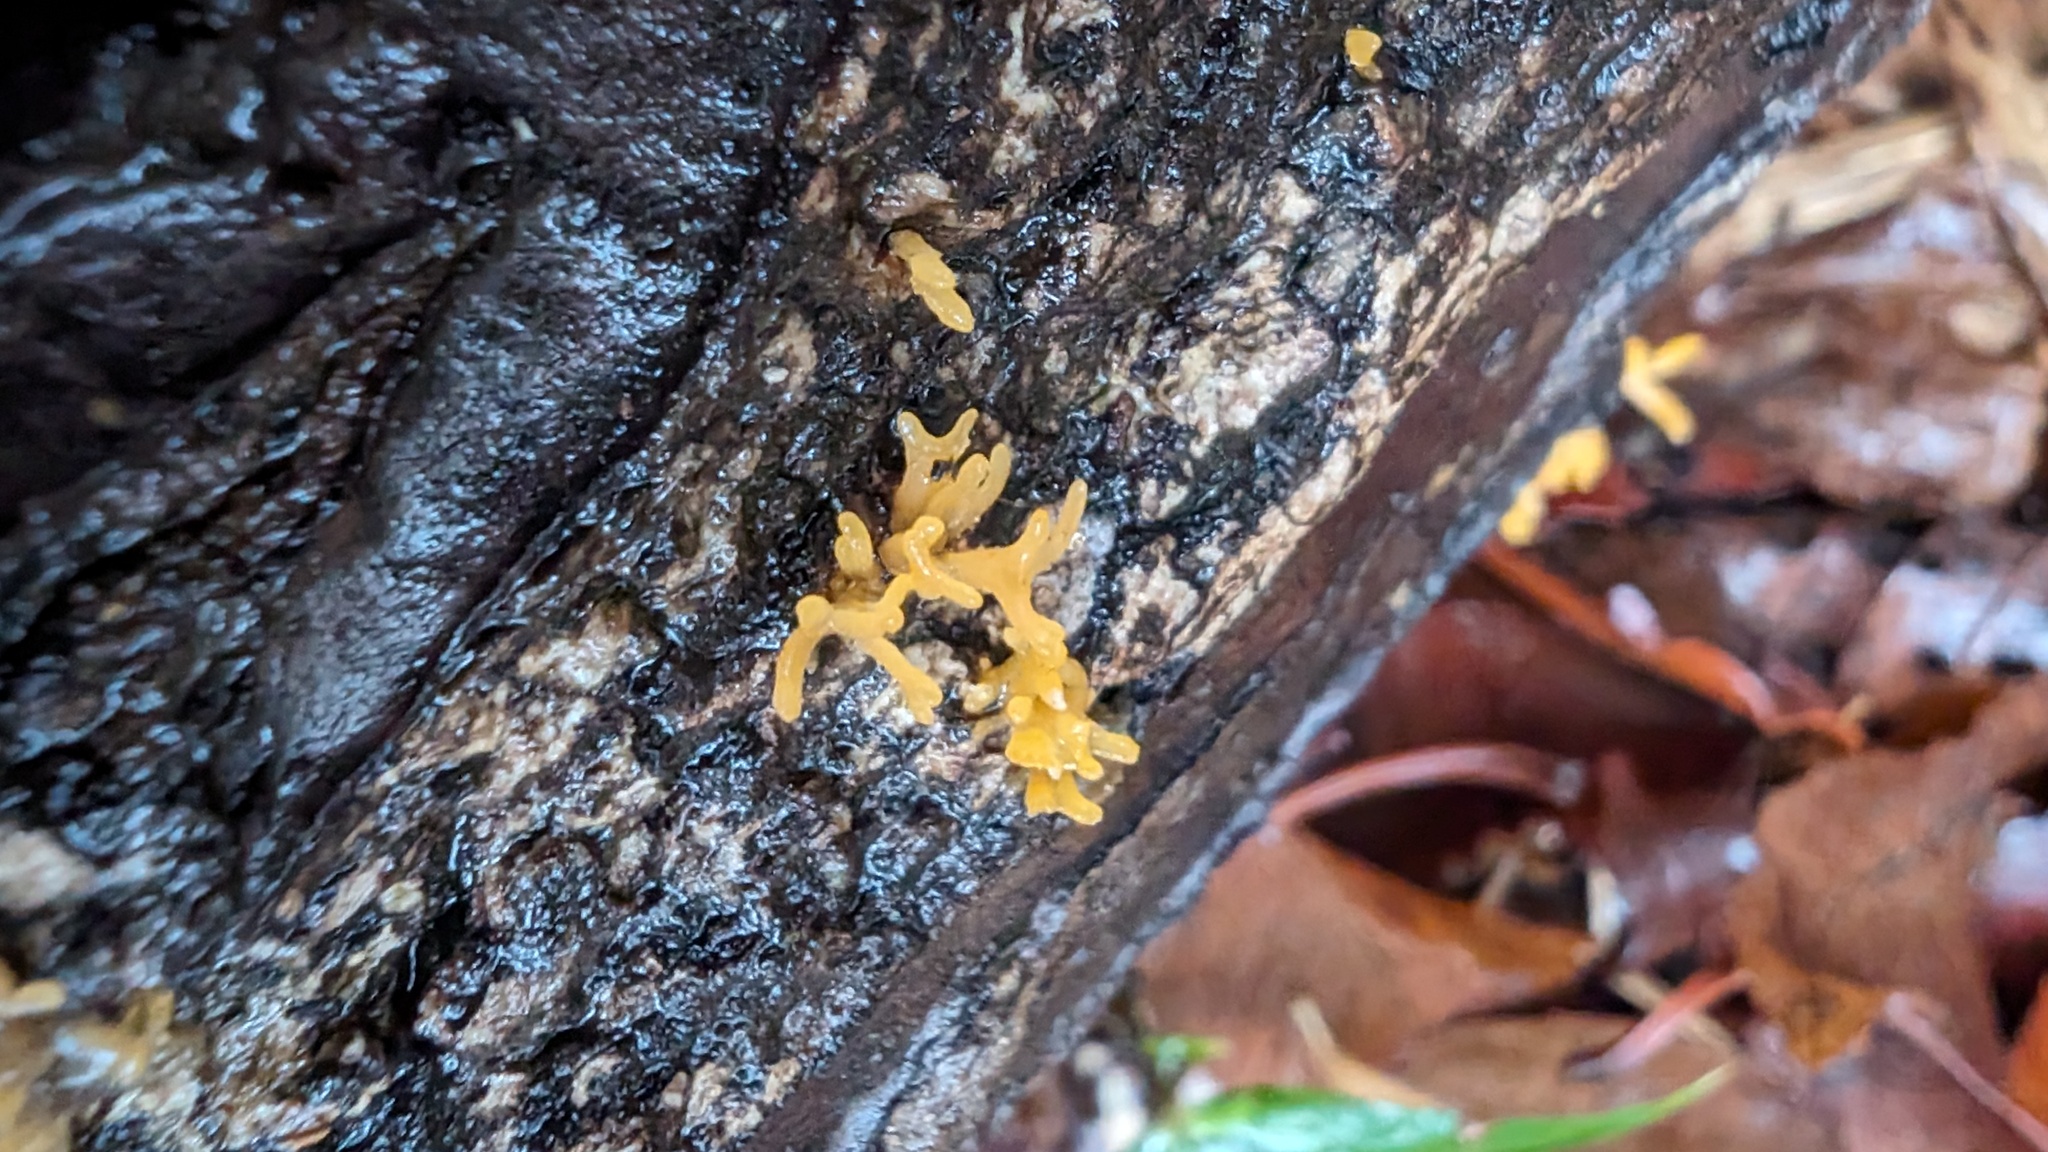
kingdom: Fungi
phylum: Basidiomycota
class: Dacrymycetes
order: Dacrymycetales
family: Dacrymycetaceae
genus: Calocera
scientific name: Calocera cornea
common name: Small stagshorn
